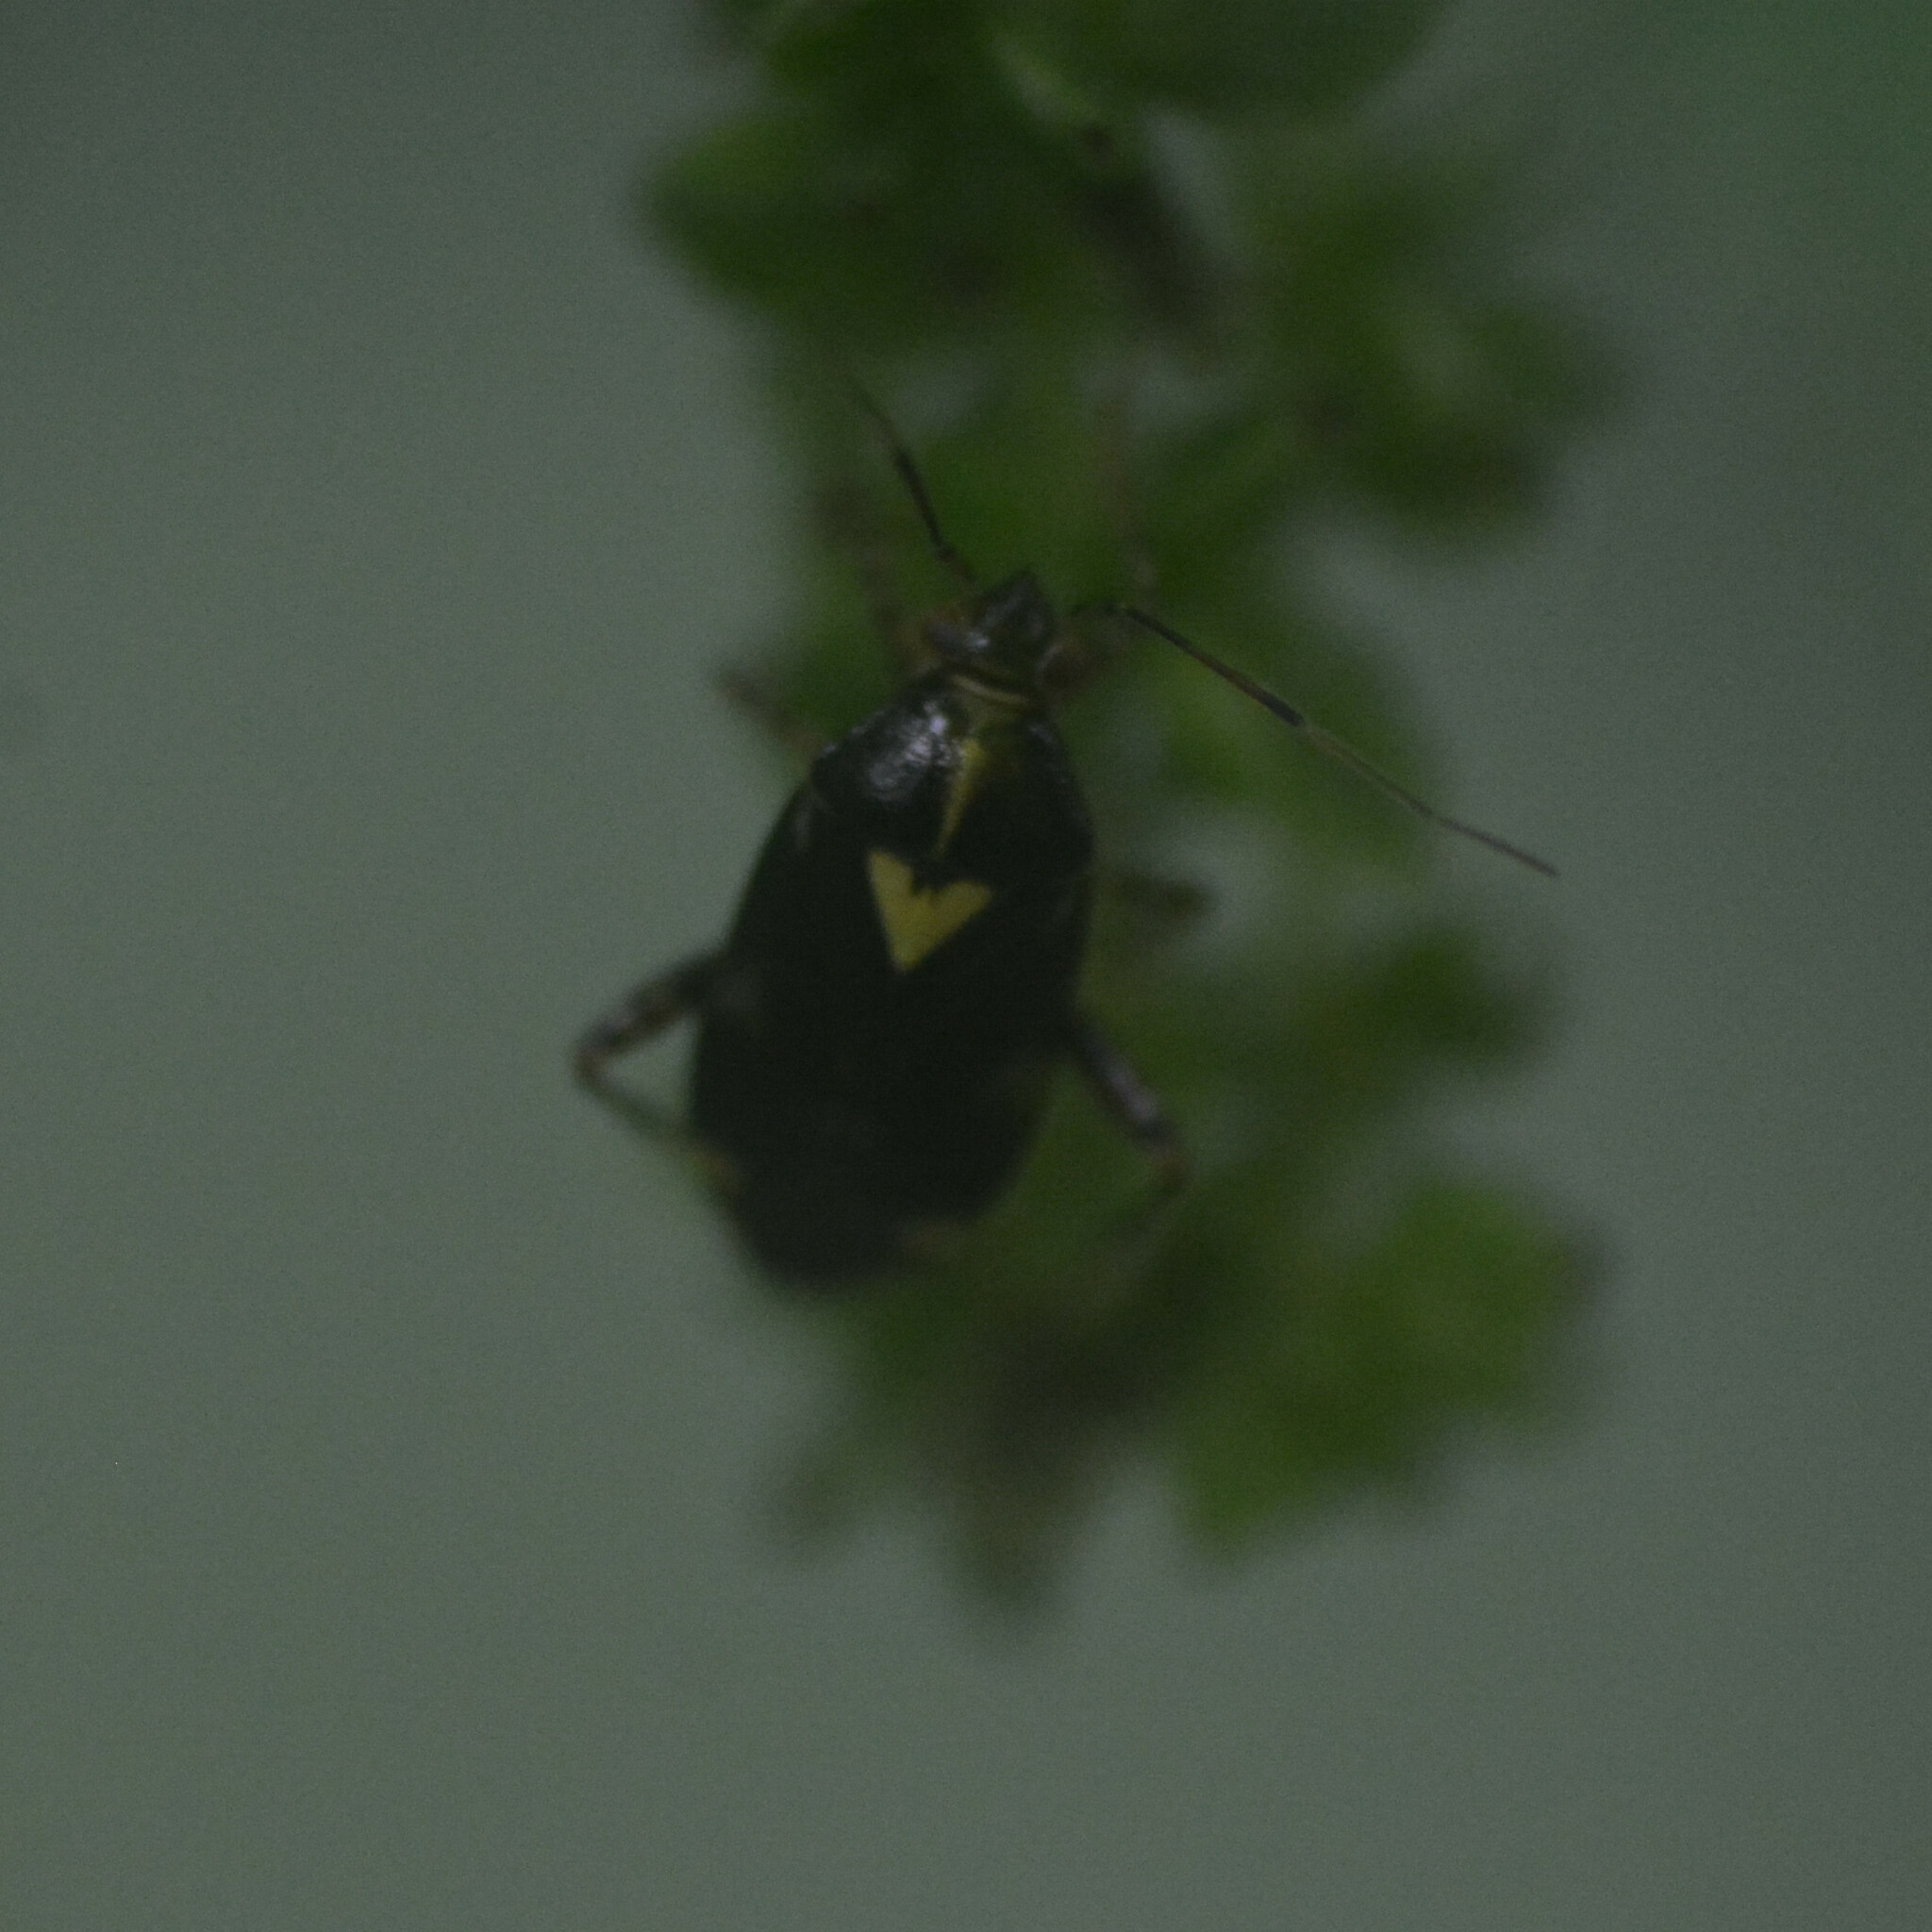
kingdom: Animalia
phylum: Arthropoda
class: Insecta
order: Hemiptera
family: Miridae
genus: Liocoris
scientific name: Liocoris tripustulatus
